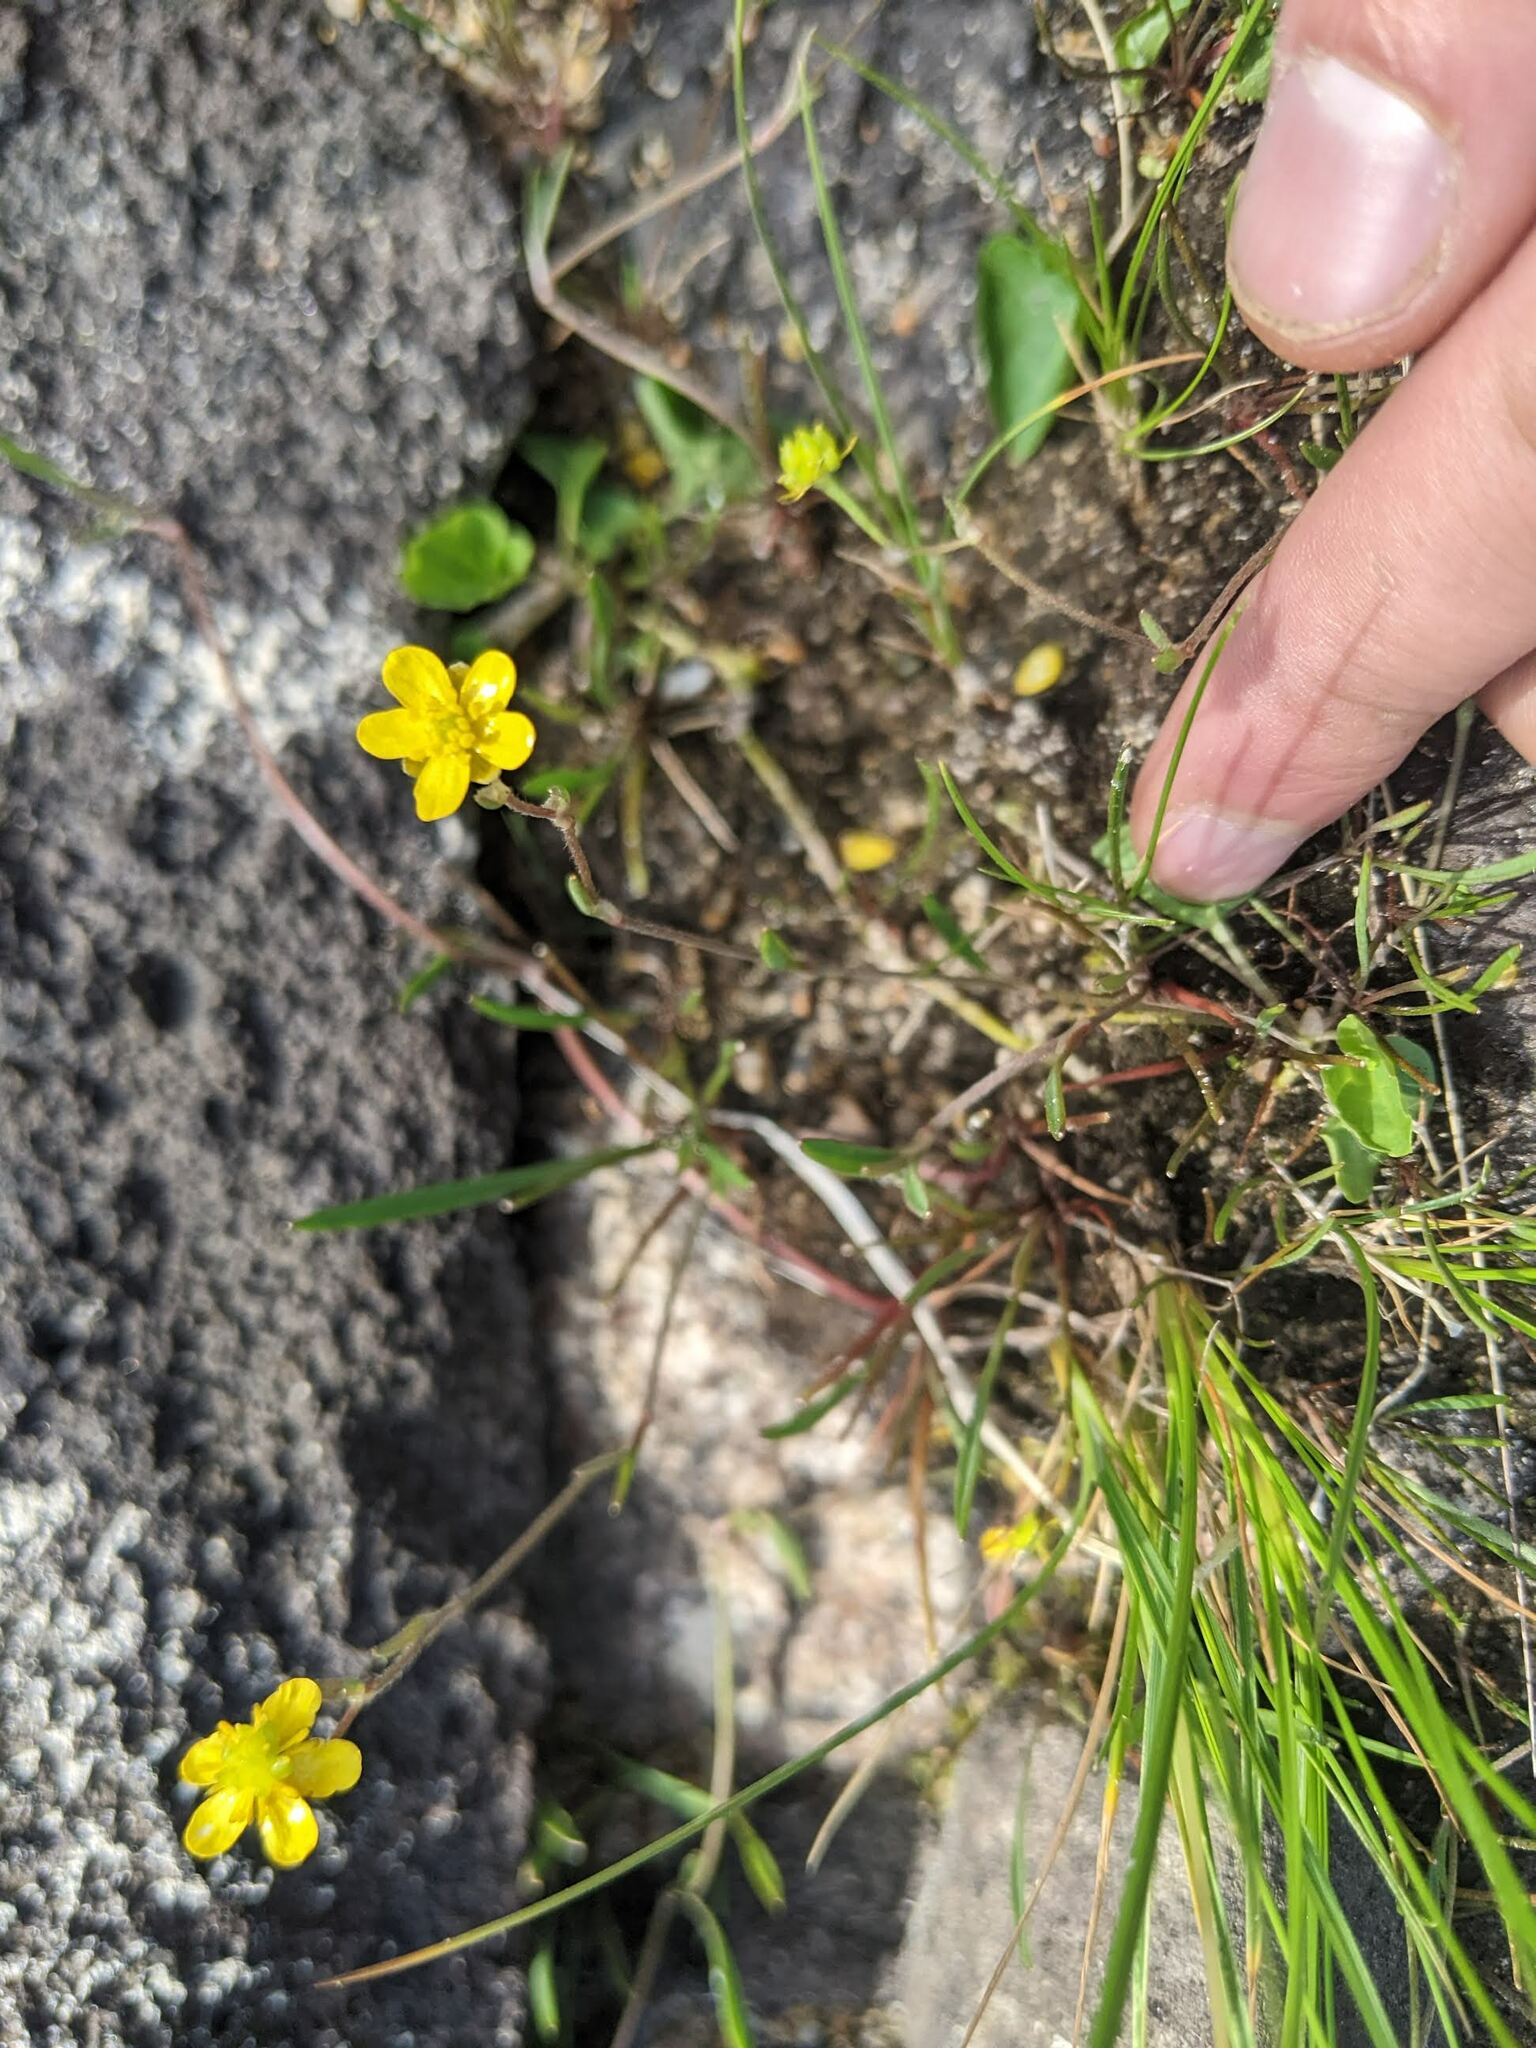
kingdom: Plantae
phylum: Tracheophyta
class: Magnoliopsida
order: Ranunculales
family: Ranunculaceae
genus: Ranunculus
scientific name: Ranunculus reptans
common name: Creeping spearwort
